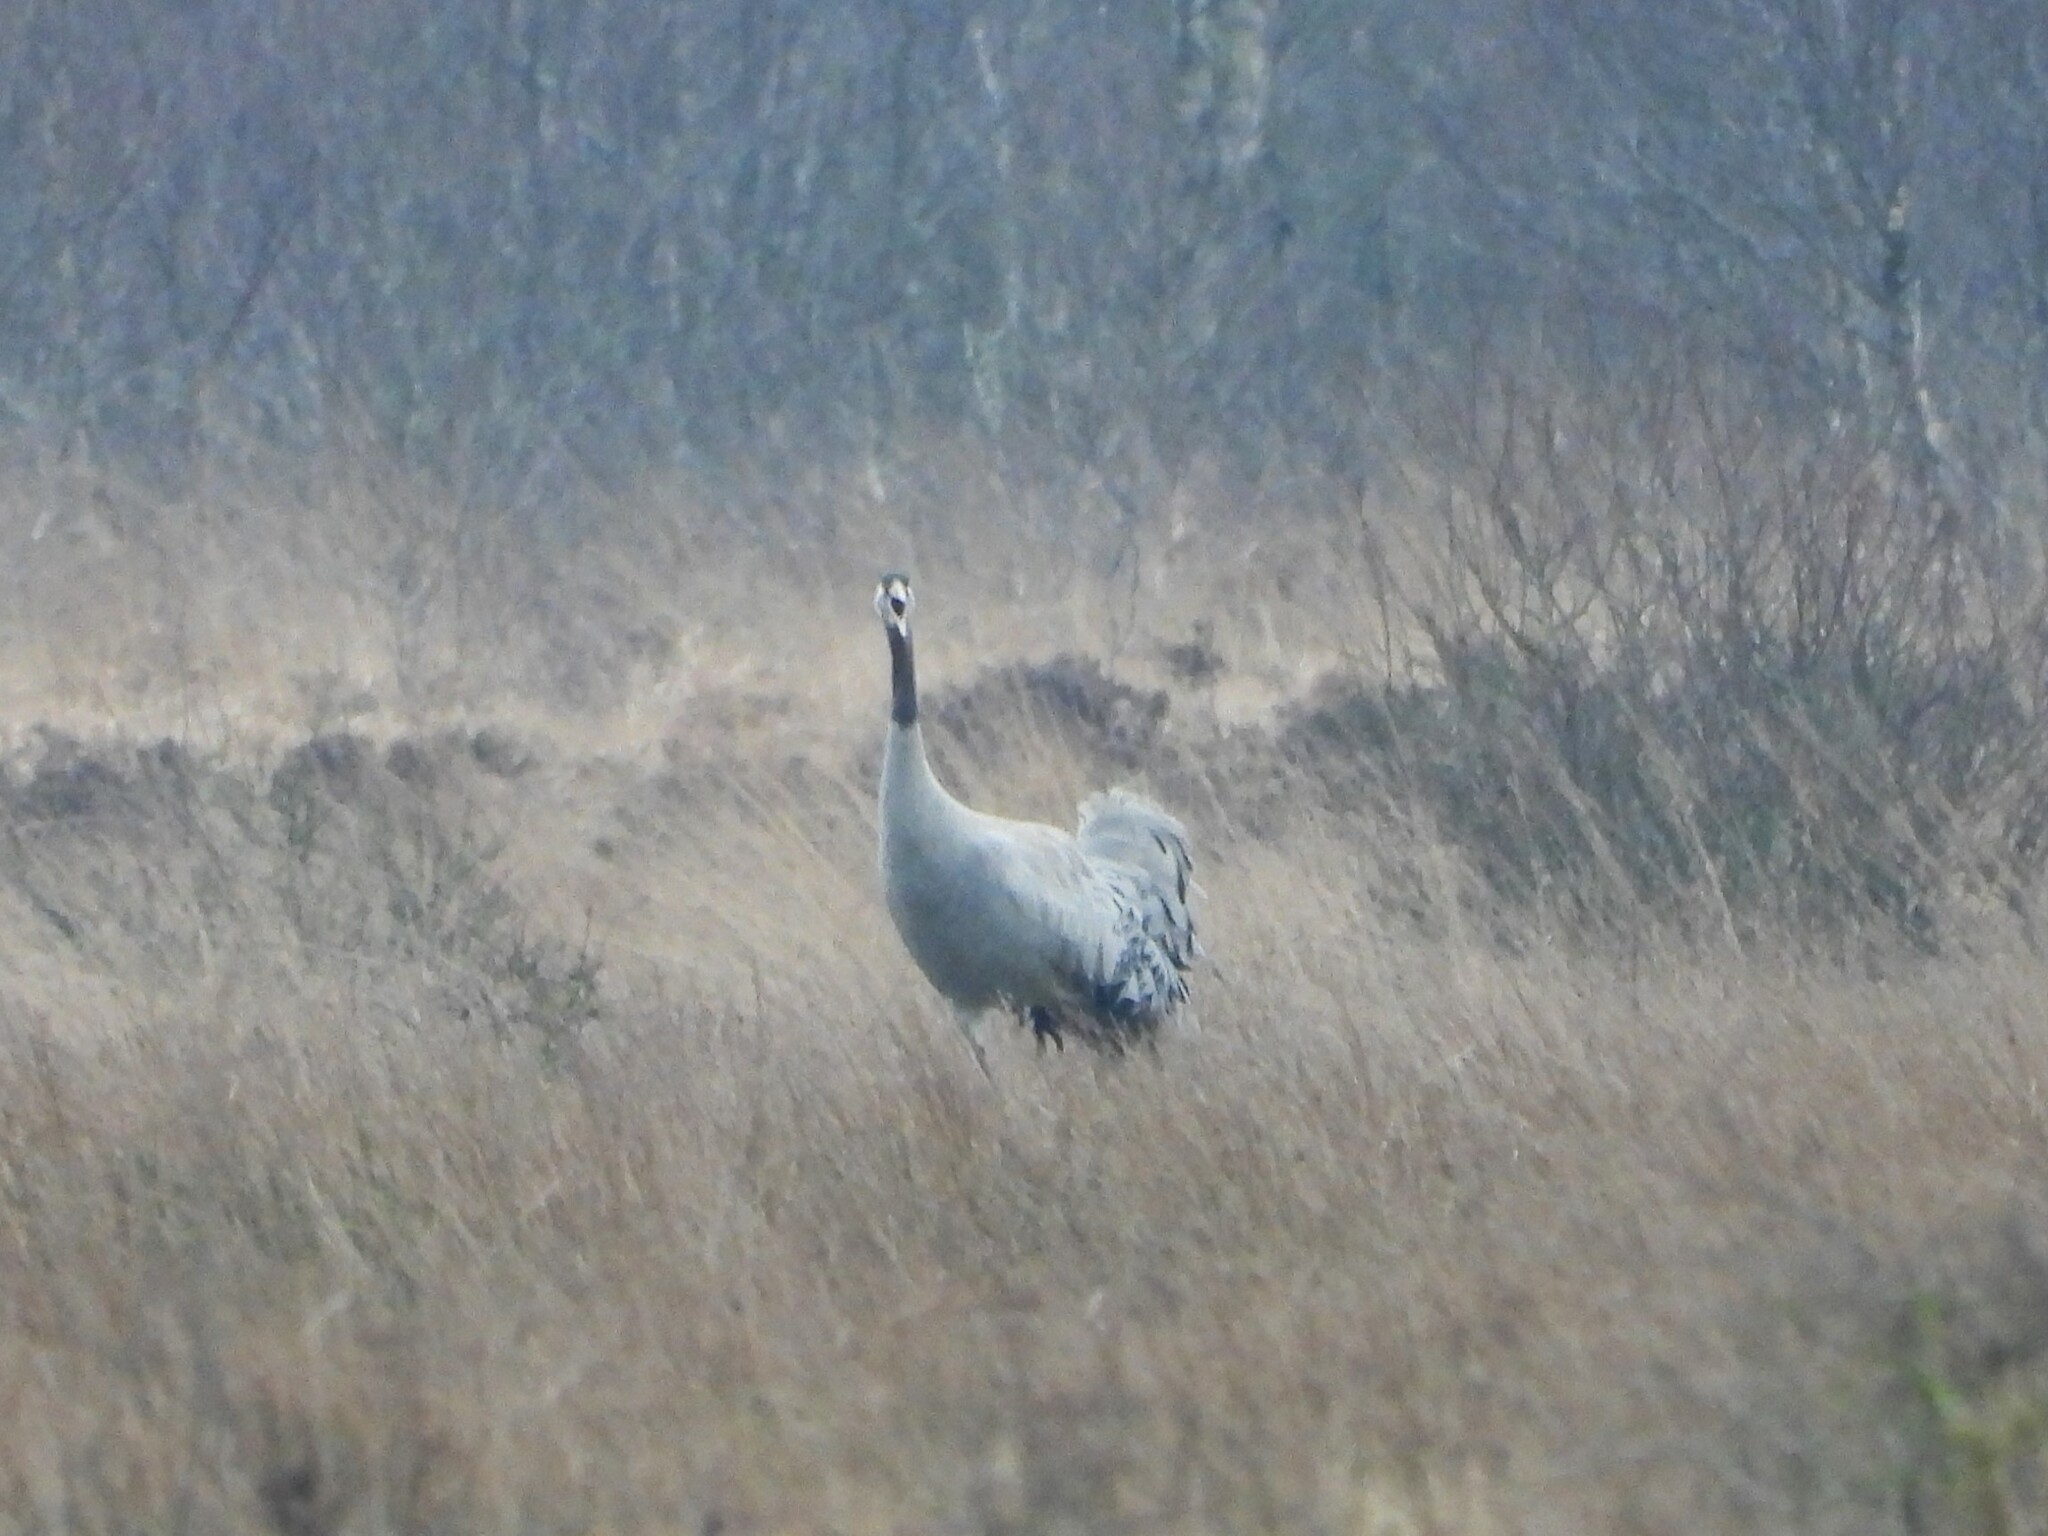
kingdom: Animalia
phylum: Chordata
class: Aves
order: Gruiformes
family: Gruidae
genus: Grus
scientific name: Grus grus
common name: Common crane
